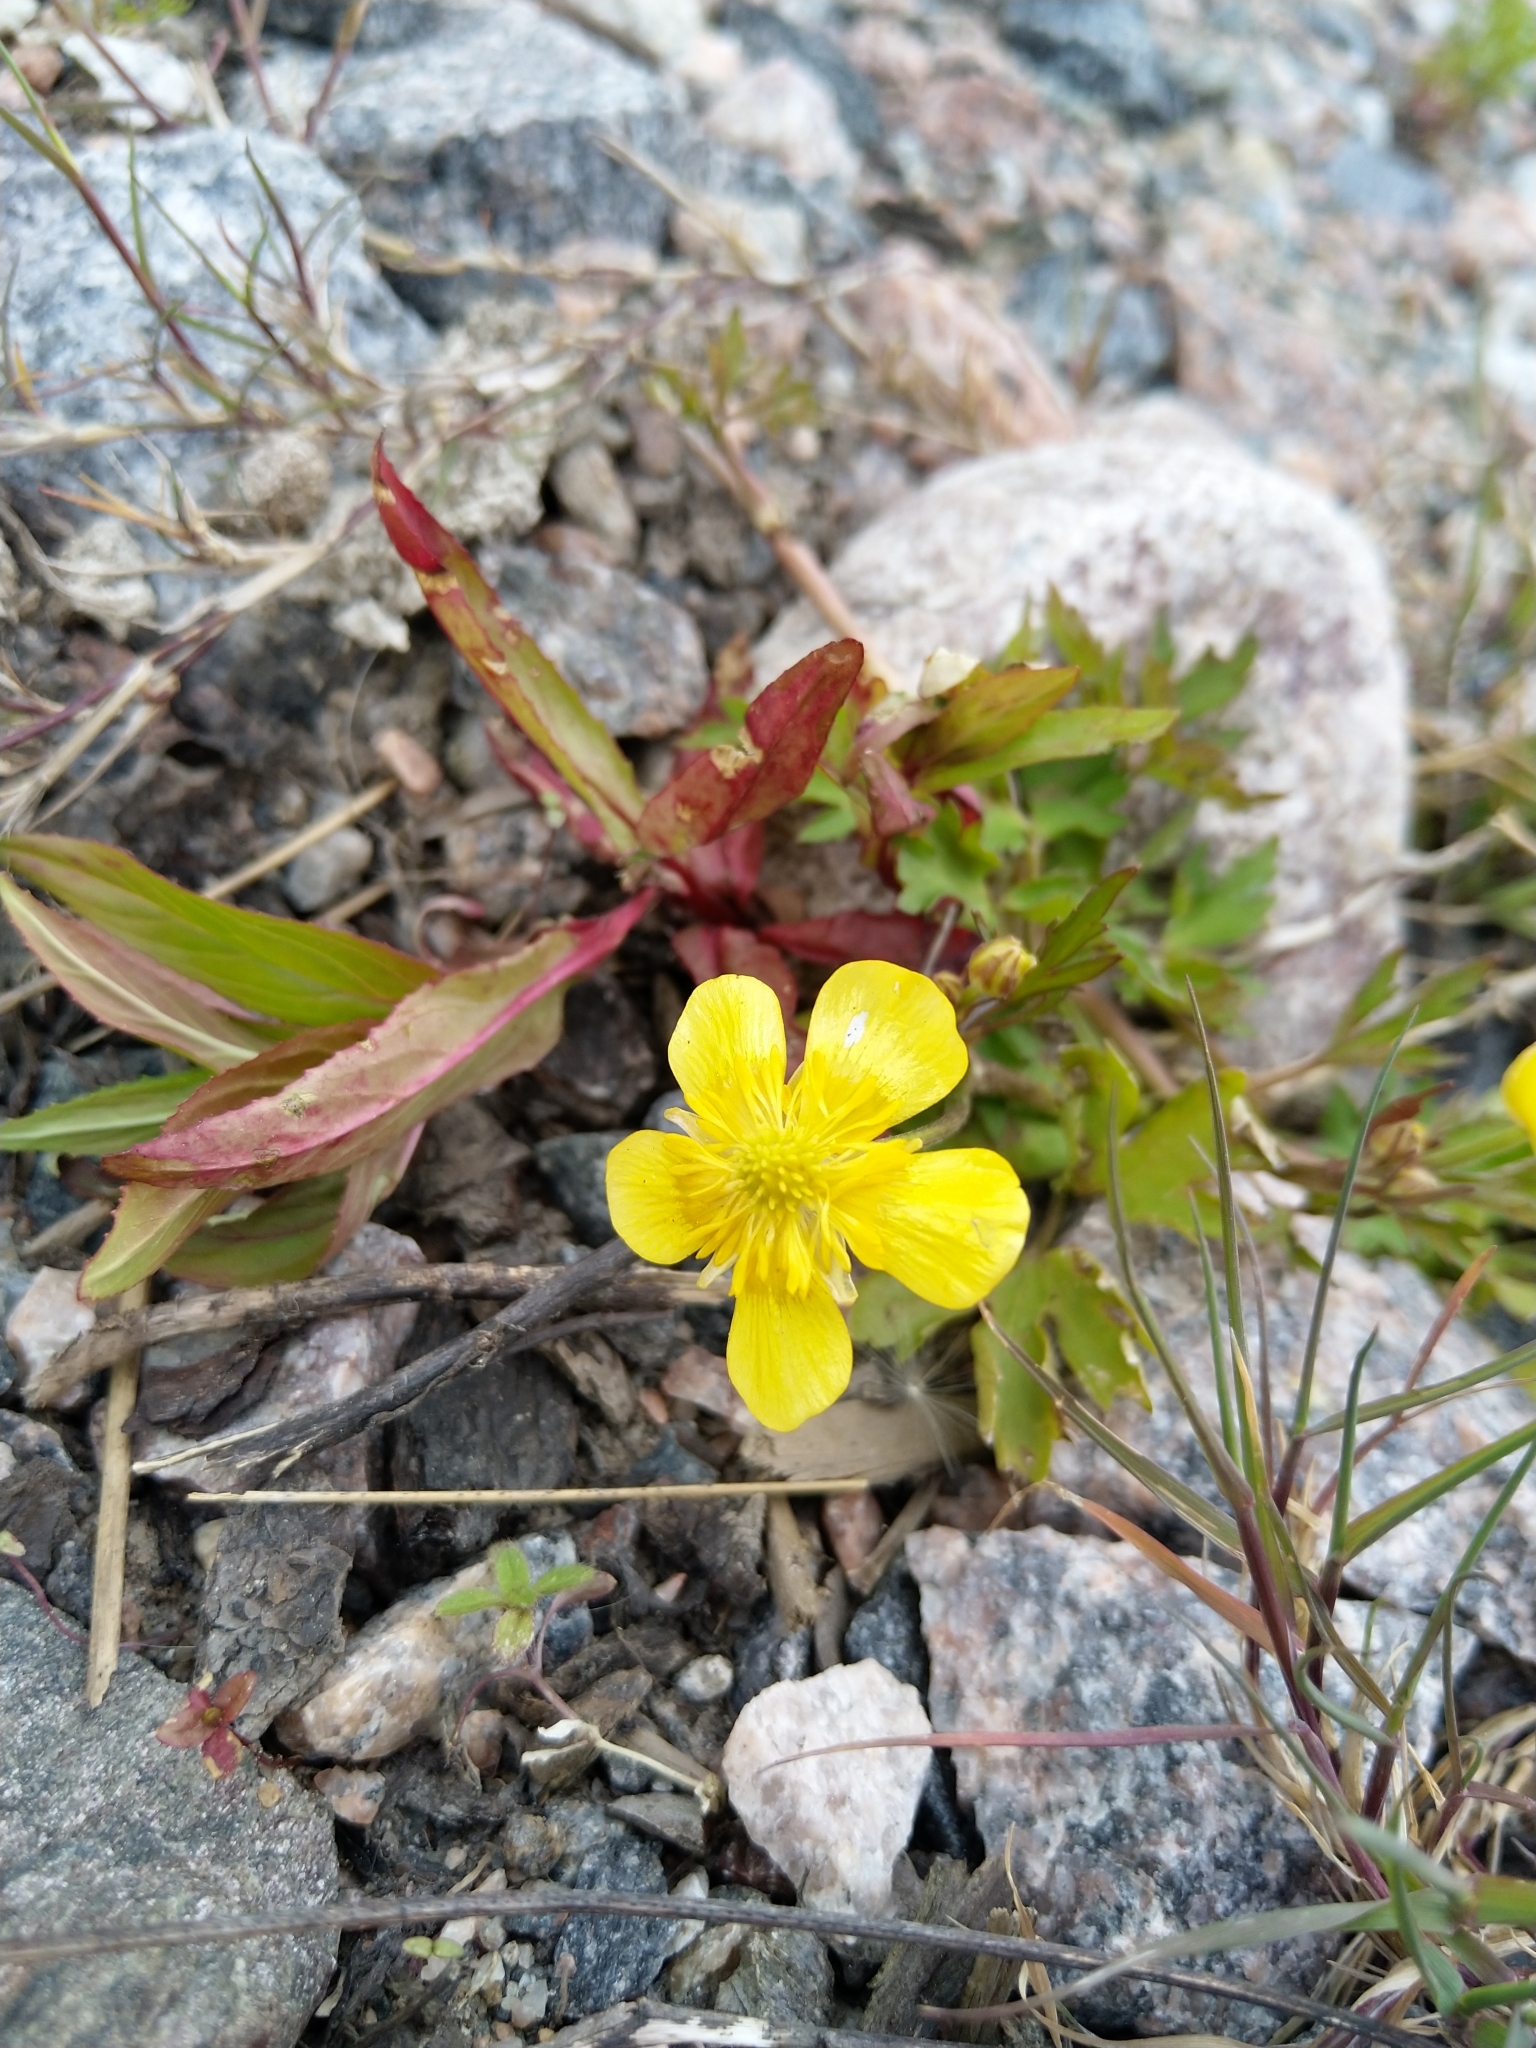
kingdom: Plantae
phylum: Tracheophyta
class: Magnoliopsida
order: Ranunculales
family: Ranunculaceae
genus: Ranunculus
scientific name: Ranunculus repens
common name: Creeping buttercup
